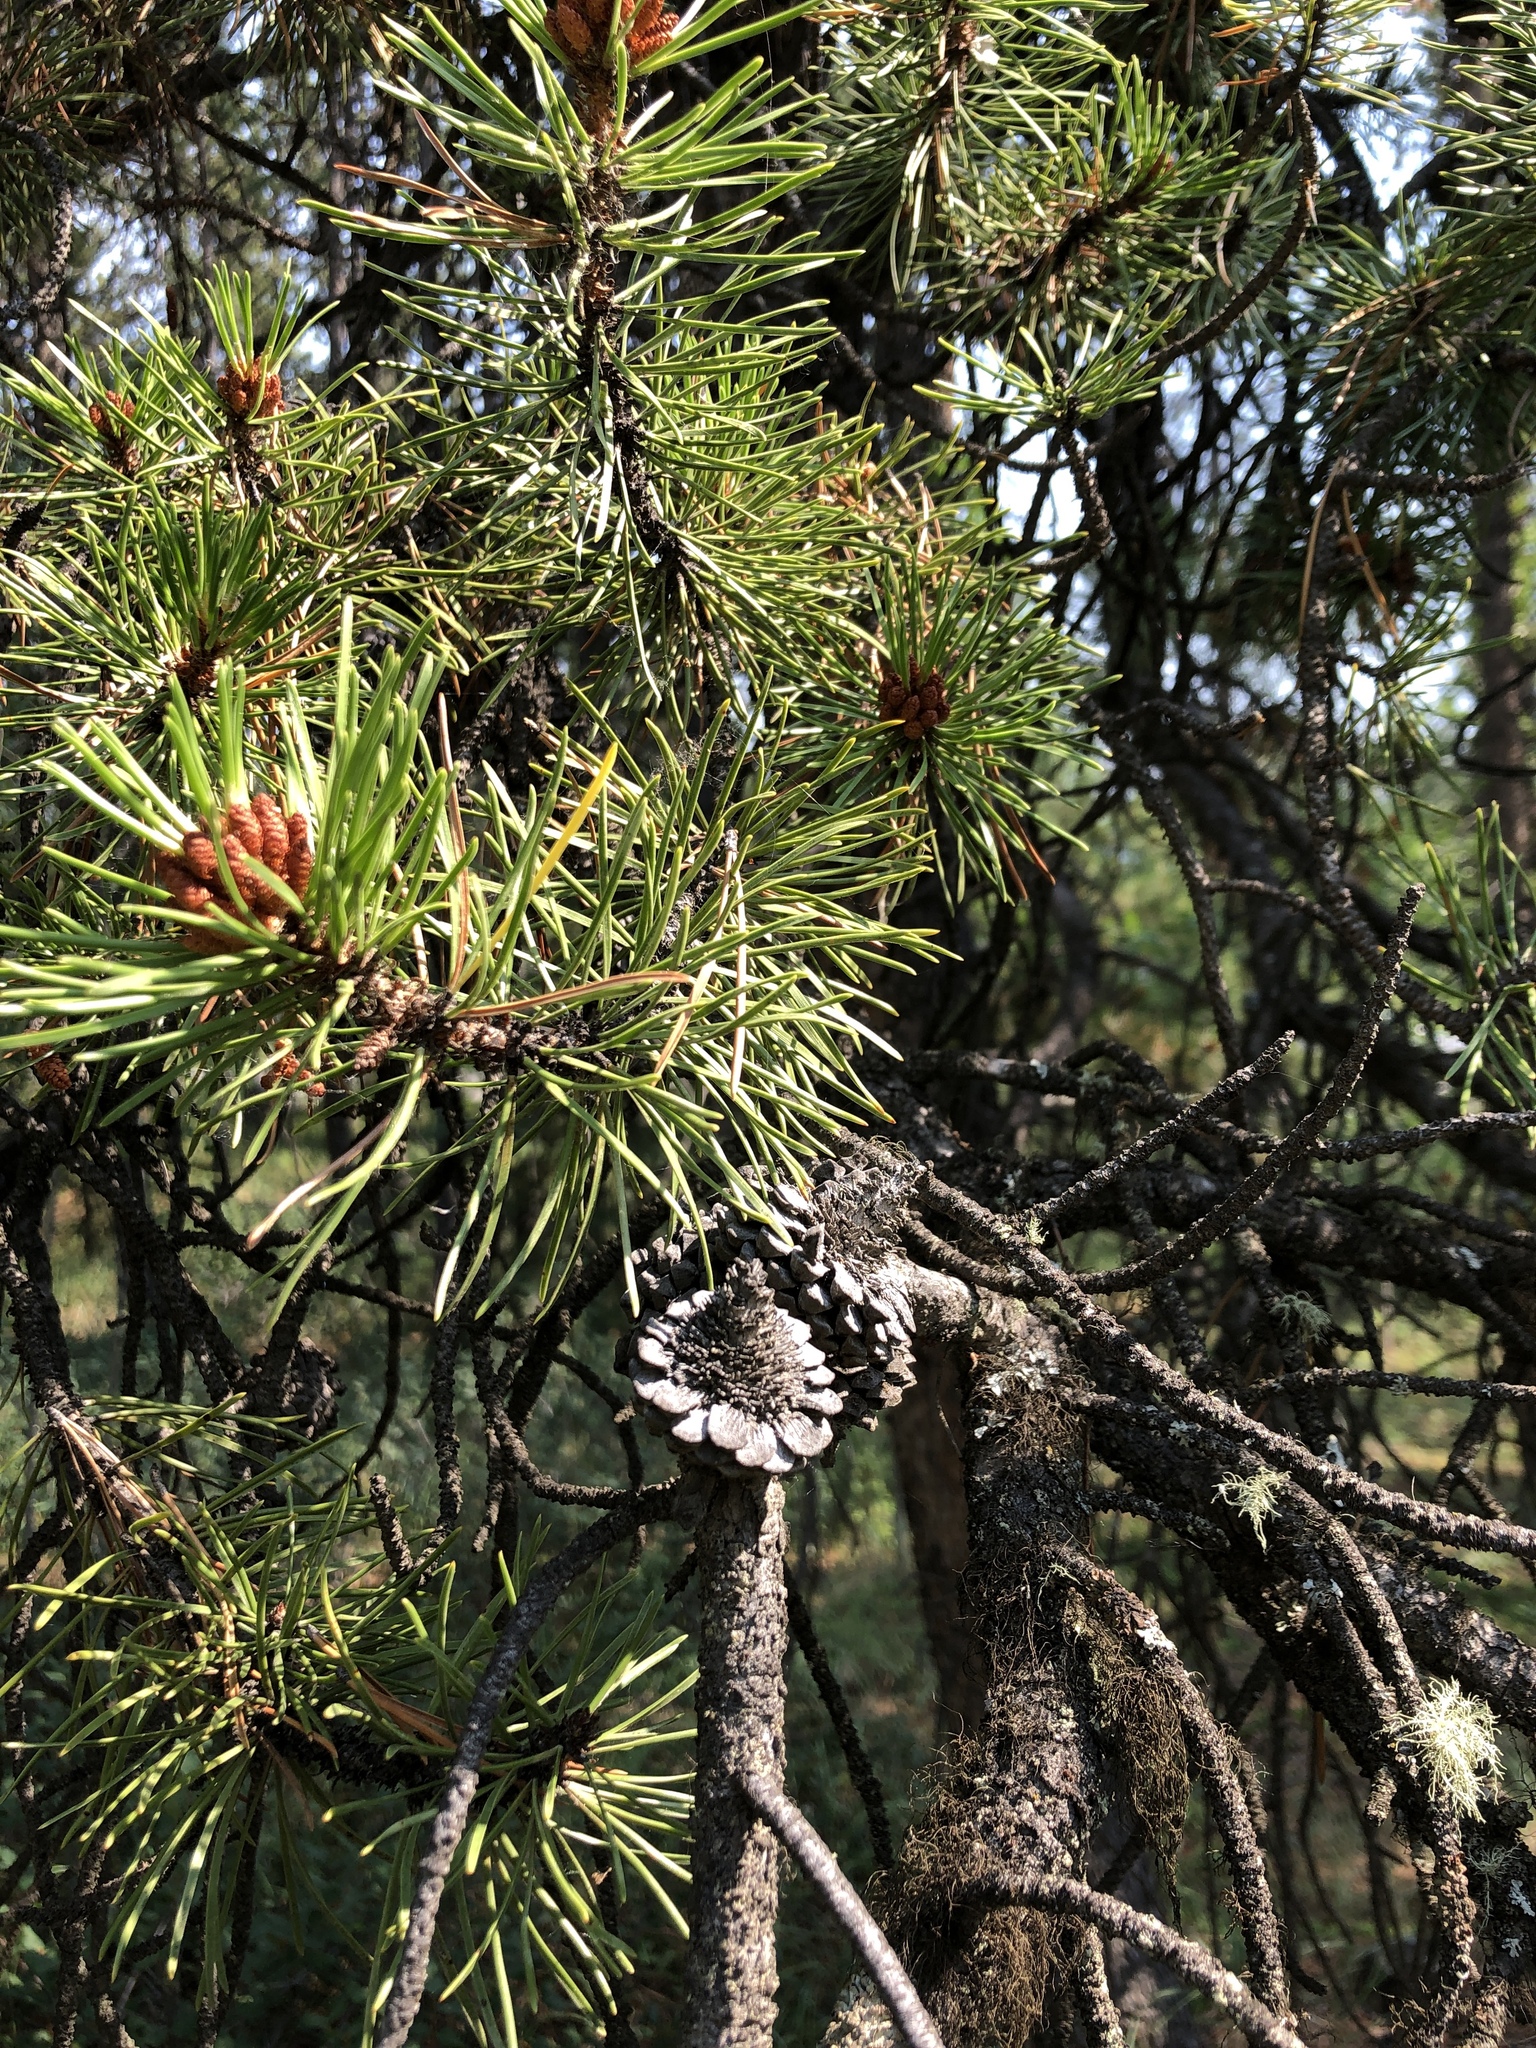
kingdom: Plantae
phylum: Tracheophyta
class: Pinopsida
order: Pinales
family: Pinaceae
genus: Pinus
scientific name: Pinus contorta
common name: Lodgepole pine
